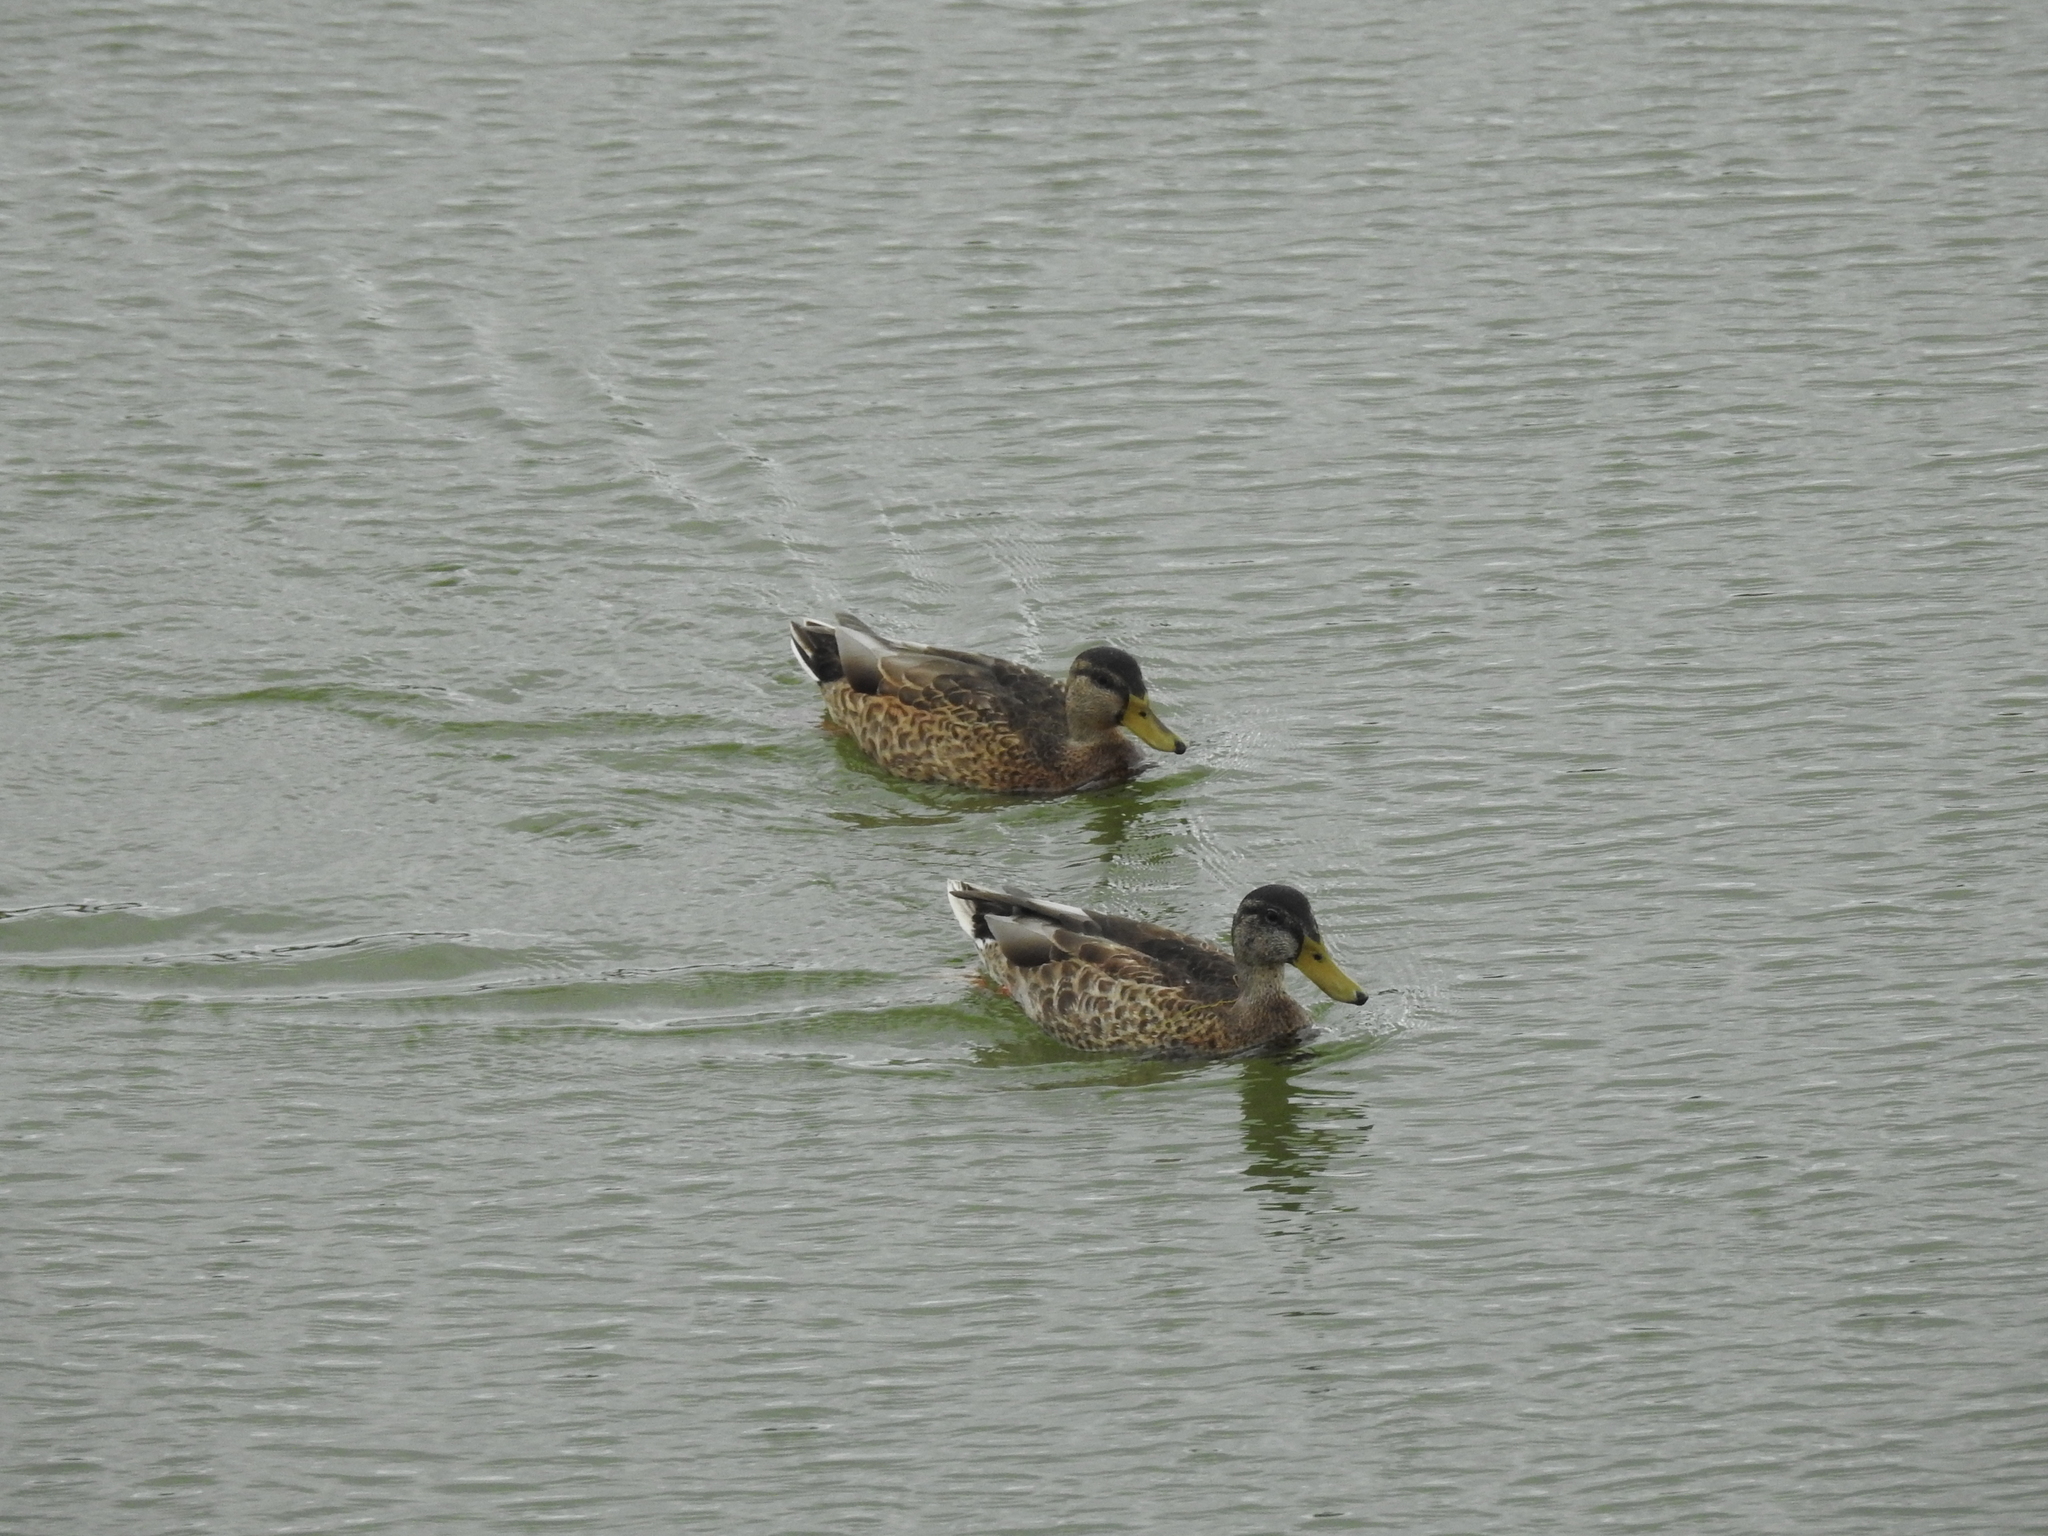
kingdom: Animalia
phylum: Chordata
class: Aves
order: Anseriformes
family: Anatidae
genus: Anas
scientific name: Anas platyrhynchos
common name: Mallard
